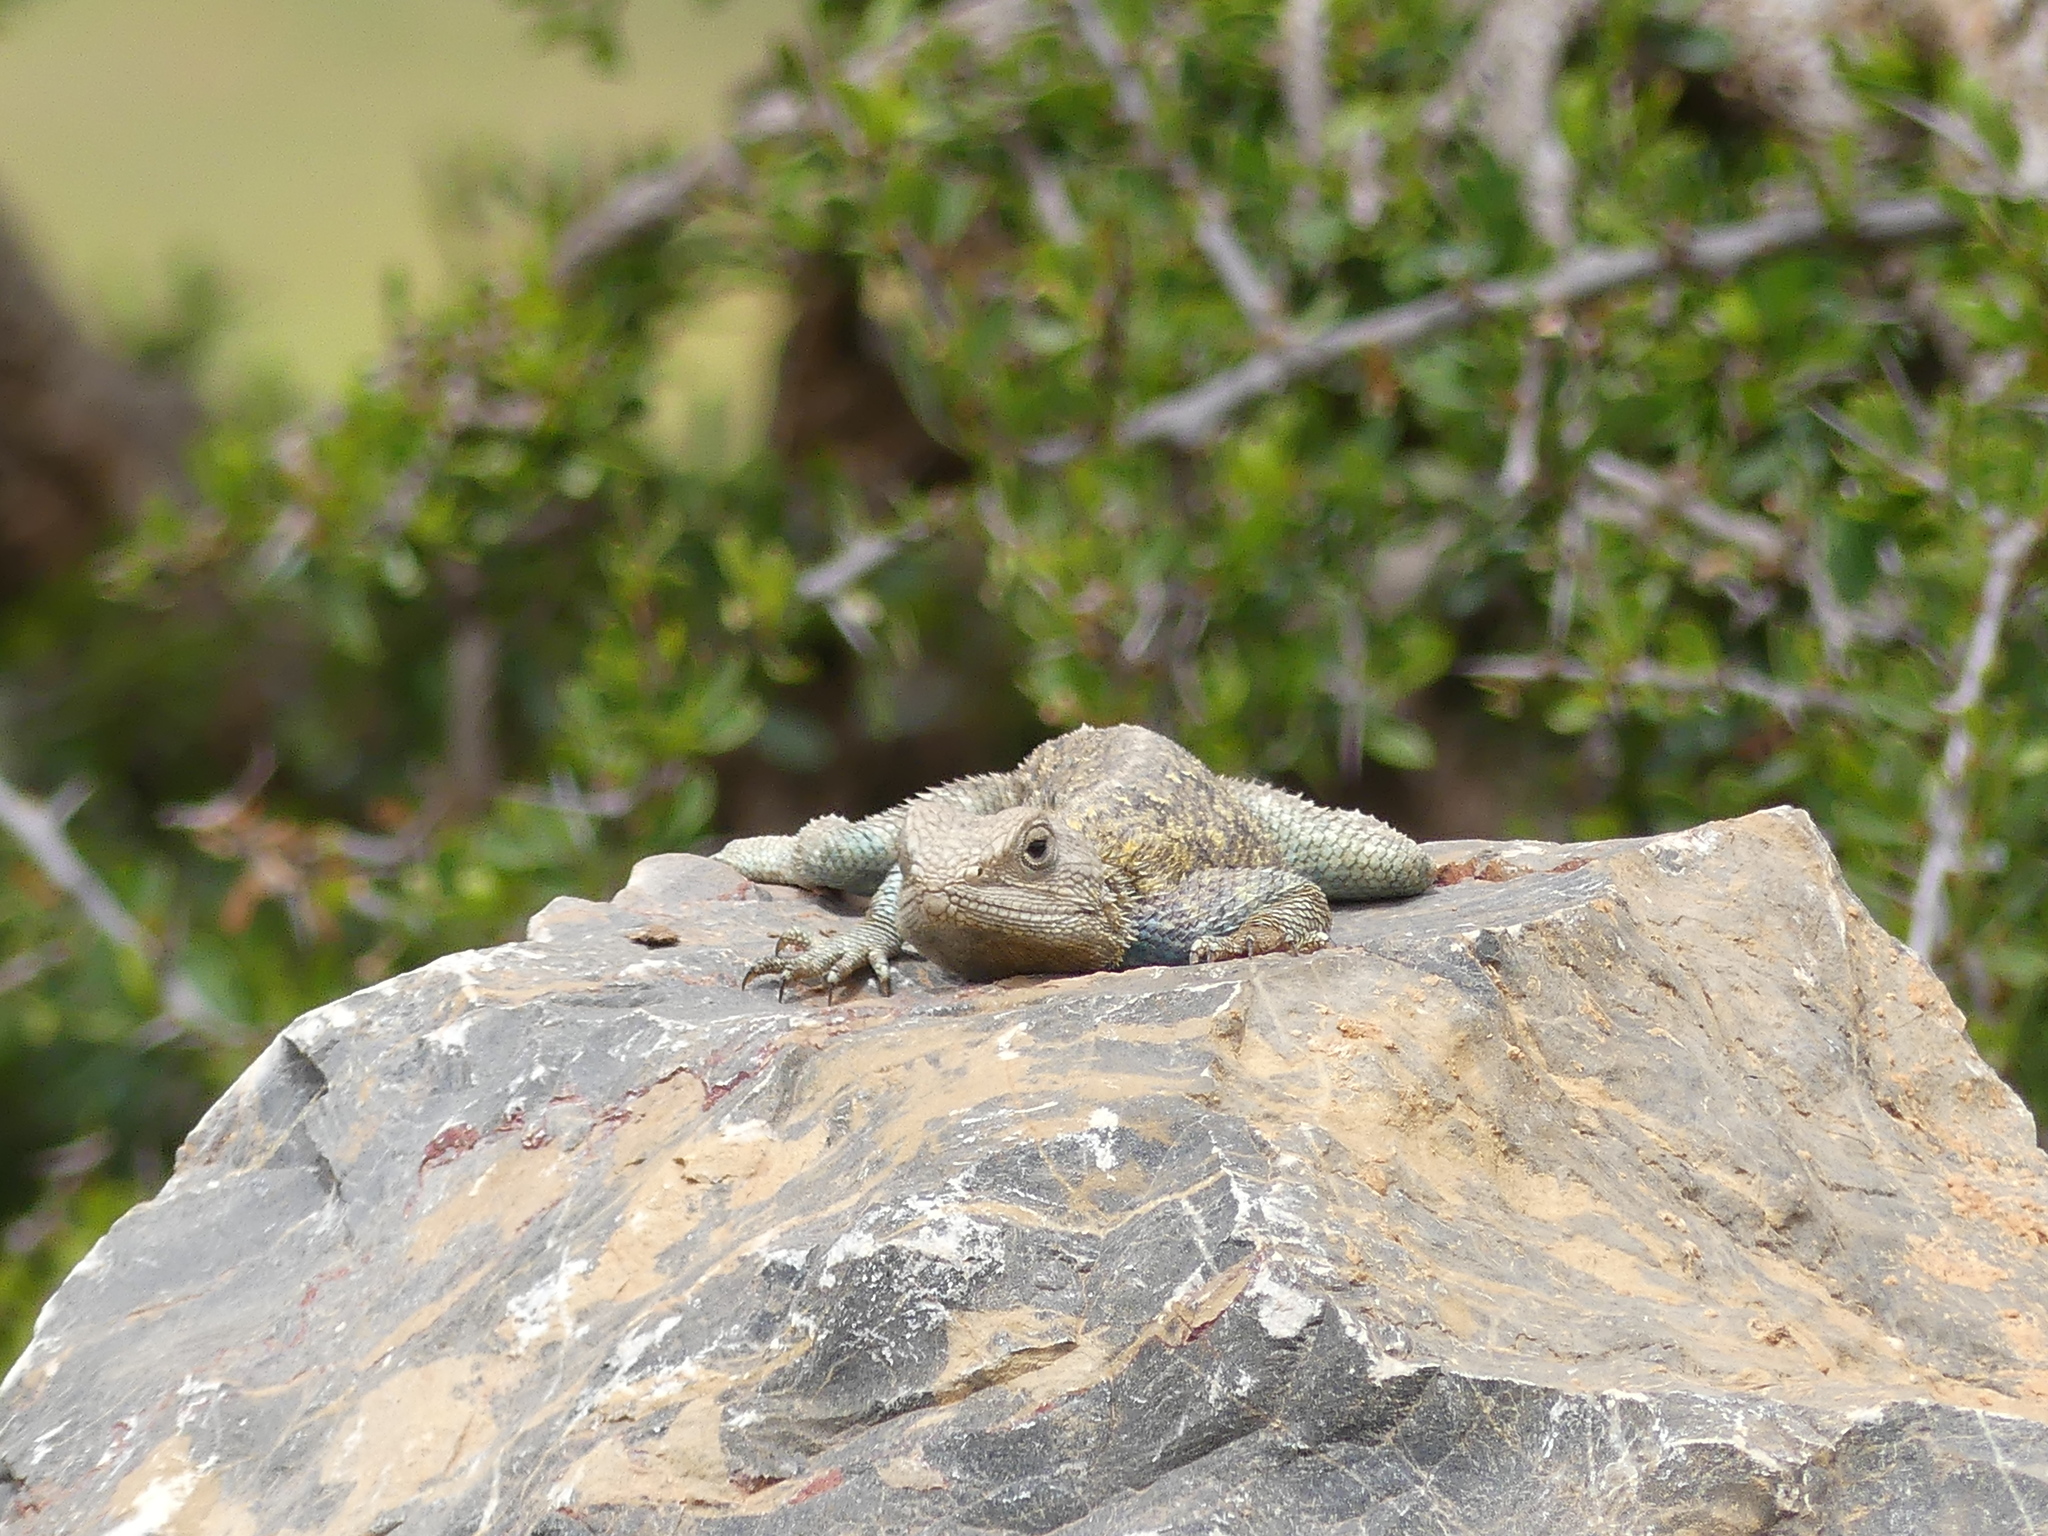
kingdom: Animalia
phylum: Chordata
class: Squamata
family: Agamidae
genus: Agama
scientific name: Agama impalearis
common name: Bibron's agama
